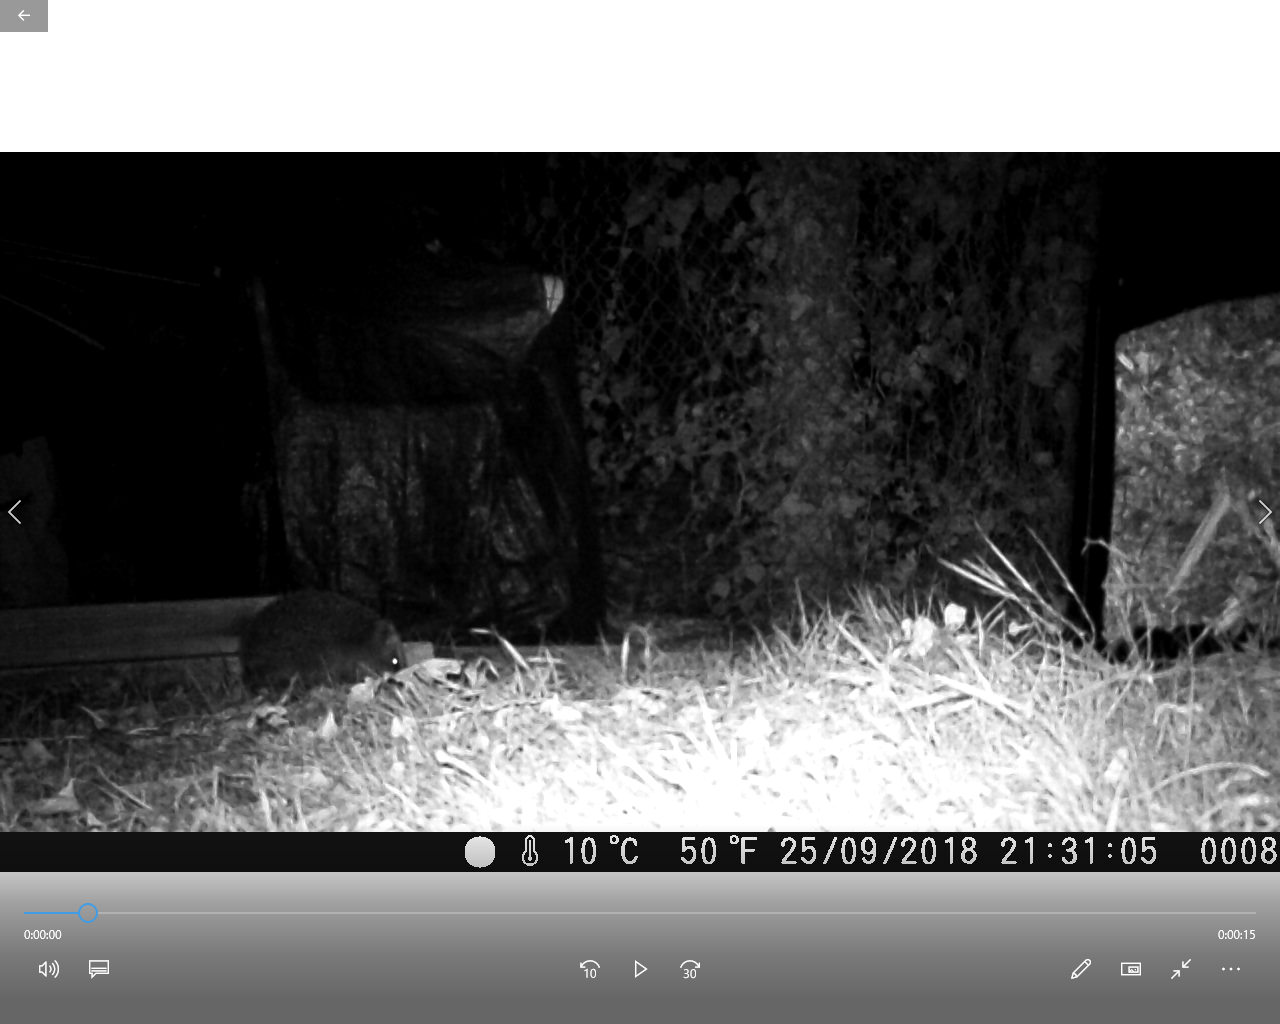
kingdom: Animalia
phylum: Chordata
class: Mammalia
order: Erinaceomorpha
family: Erinaceidae
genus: Erinaceus
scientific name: Erinaceus europaeus
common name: West european hedgehog
